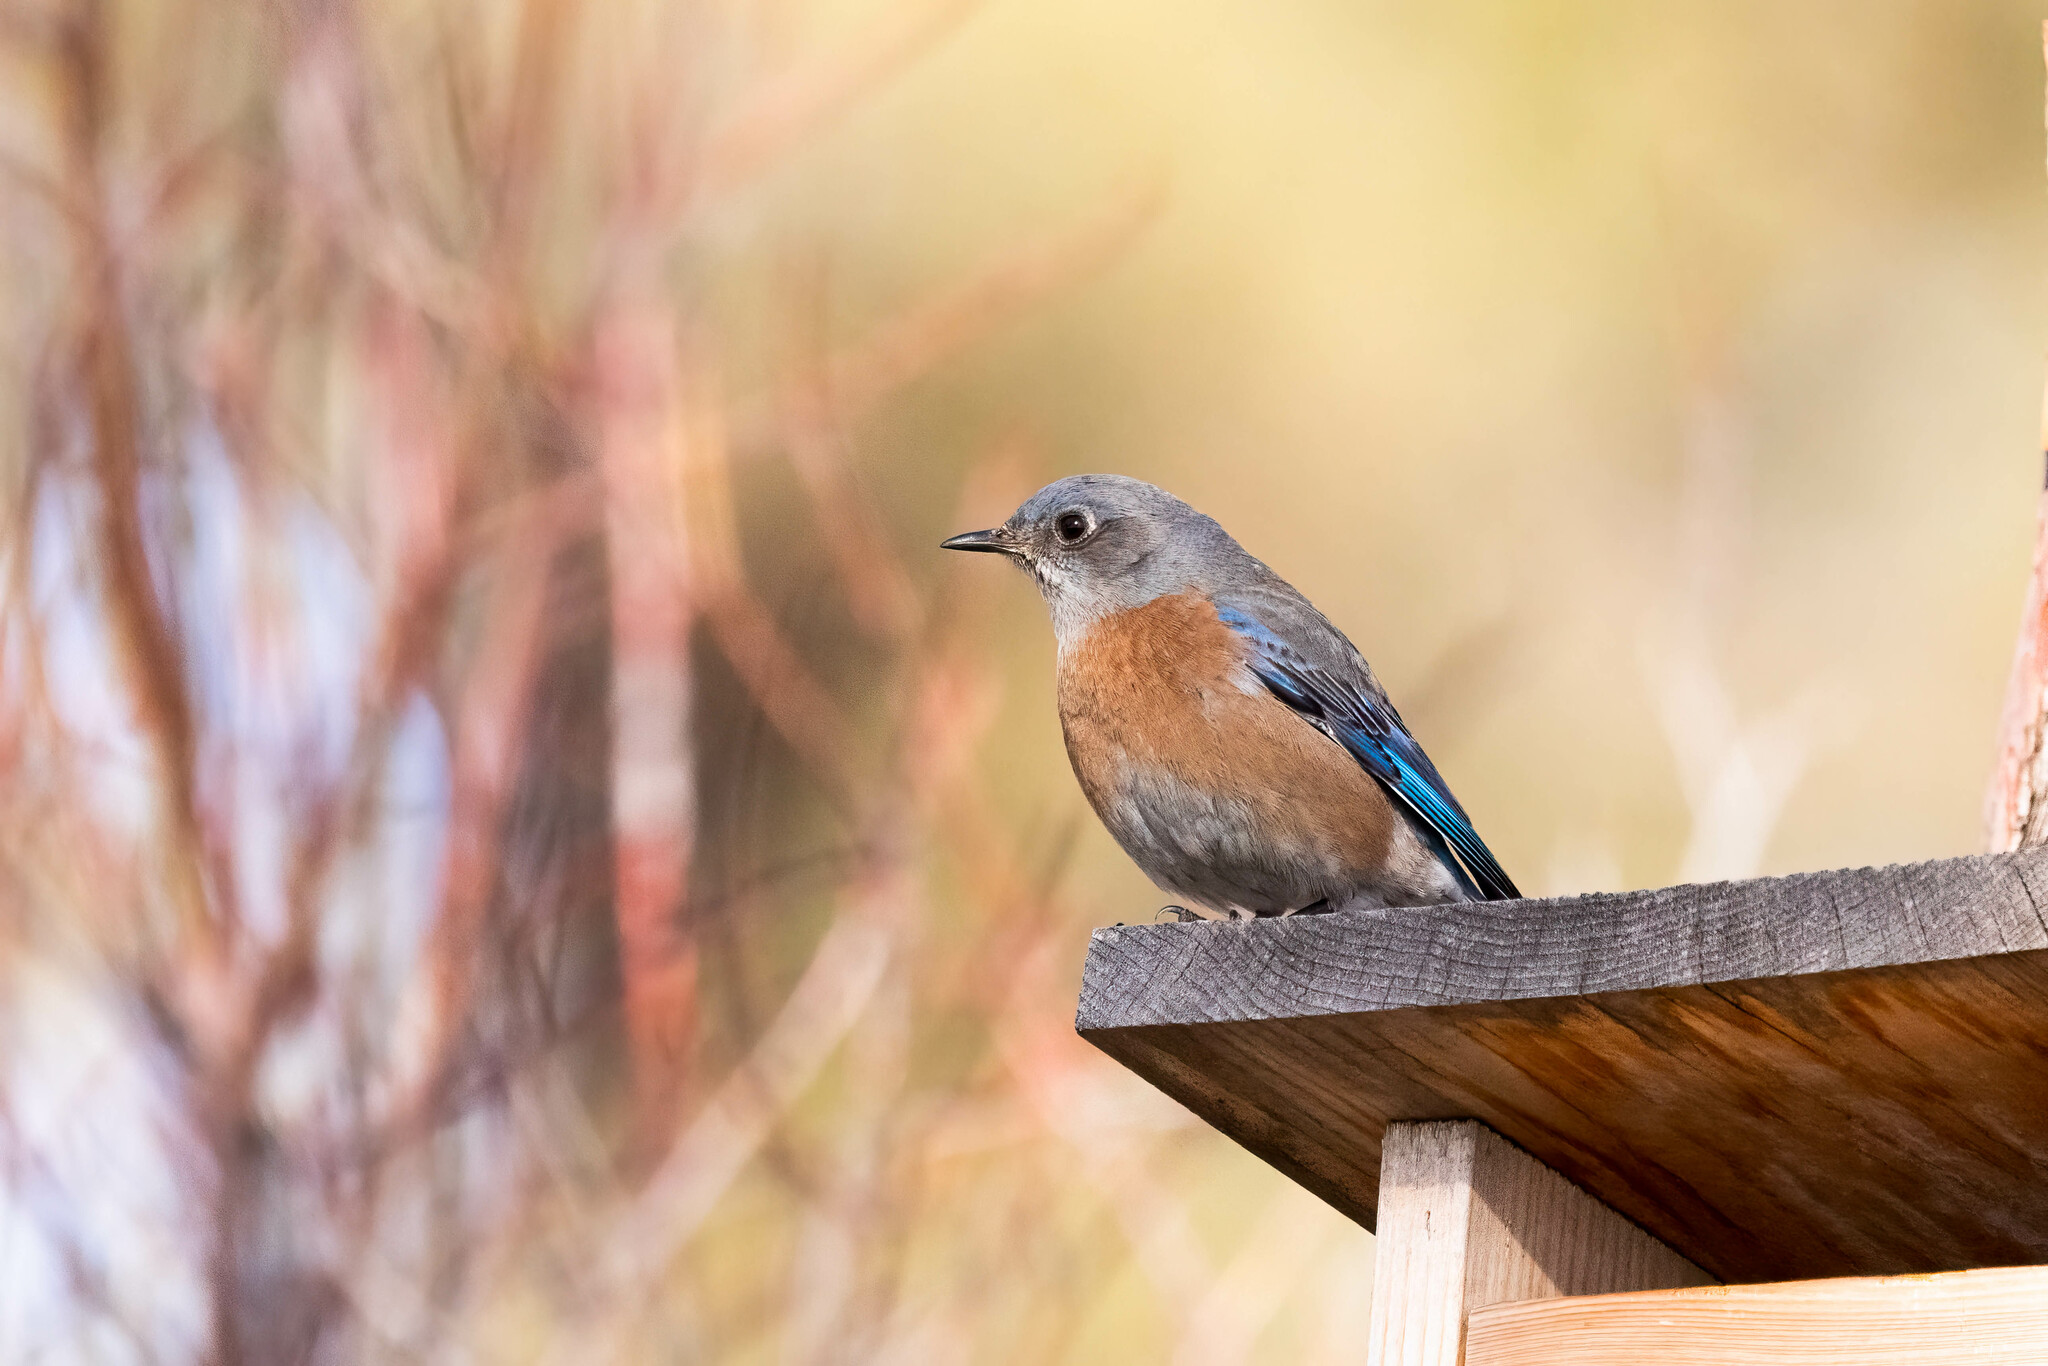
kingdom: Animalia
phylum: Chordata
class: Aves
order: Passeriformes
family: Turdidae
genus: Sialia
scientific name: Sialia mexicana
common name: Western bluebird
